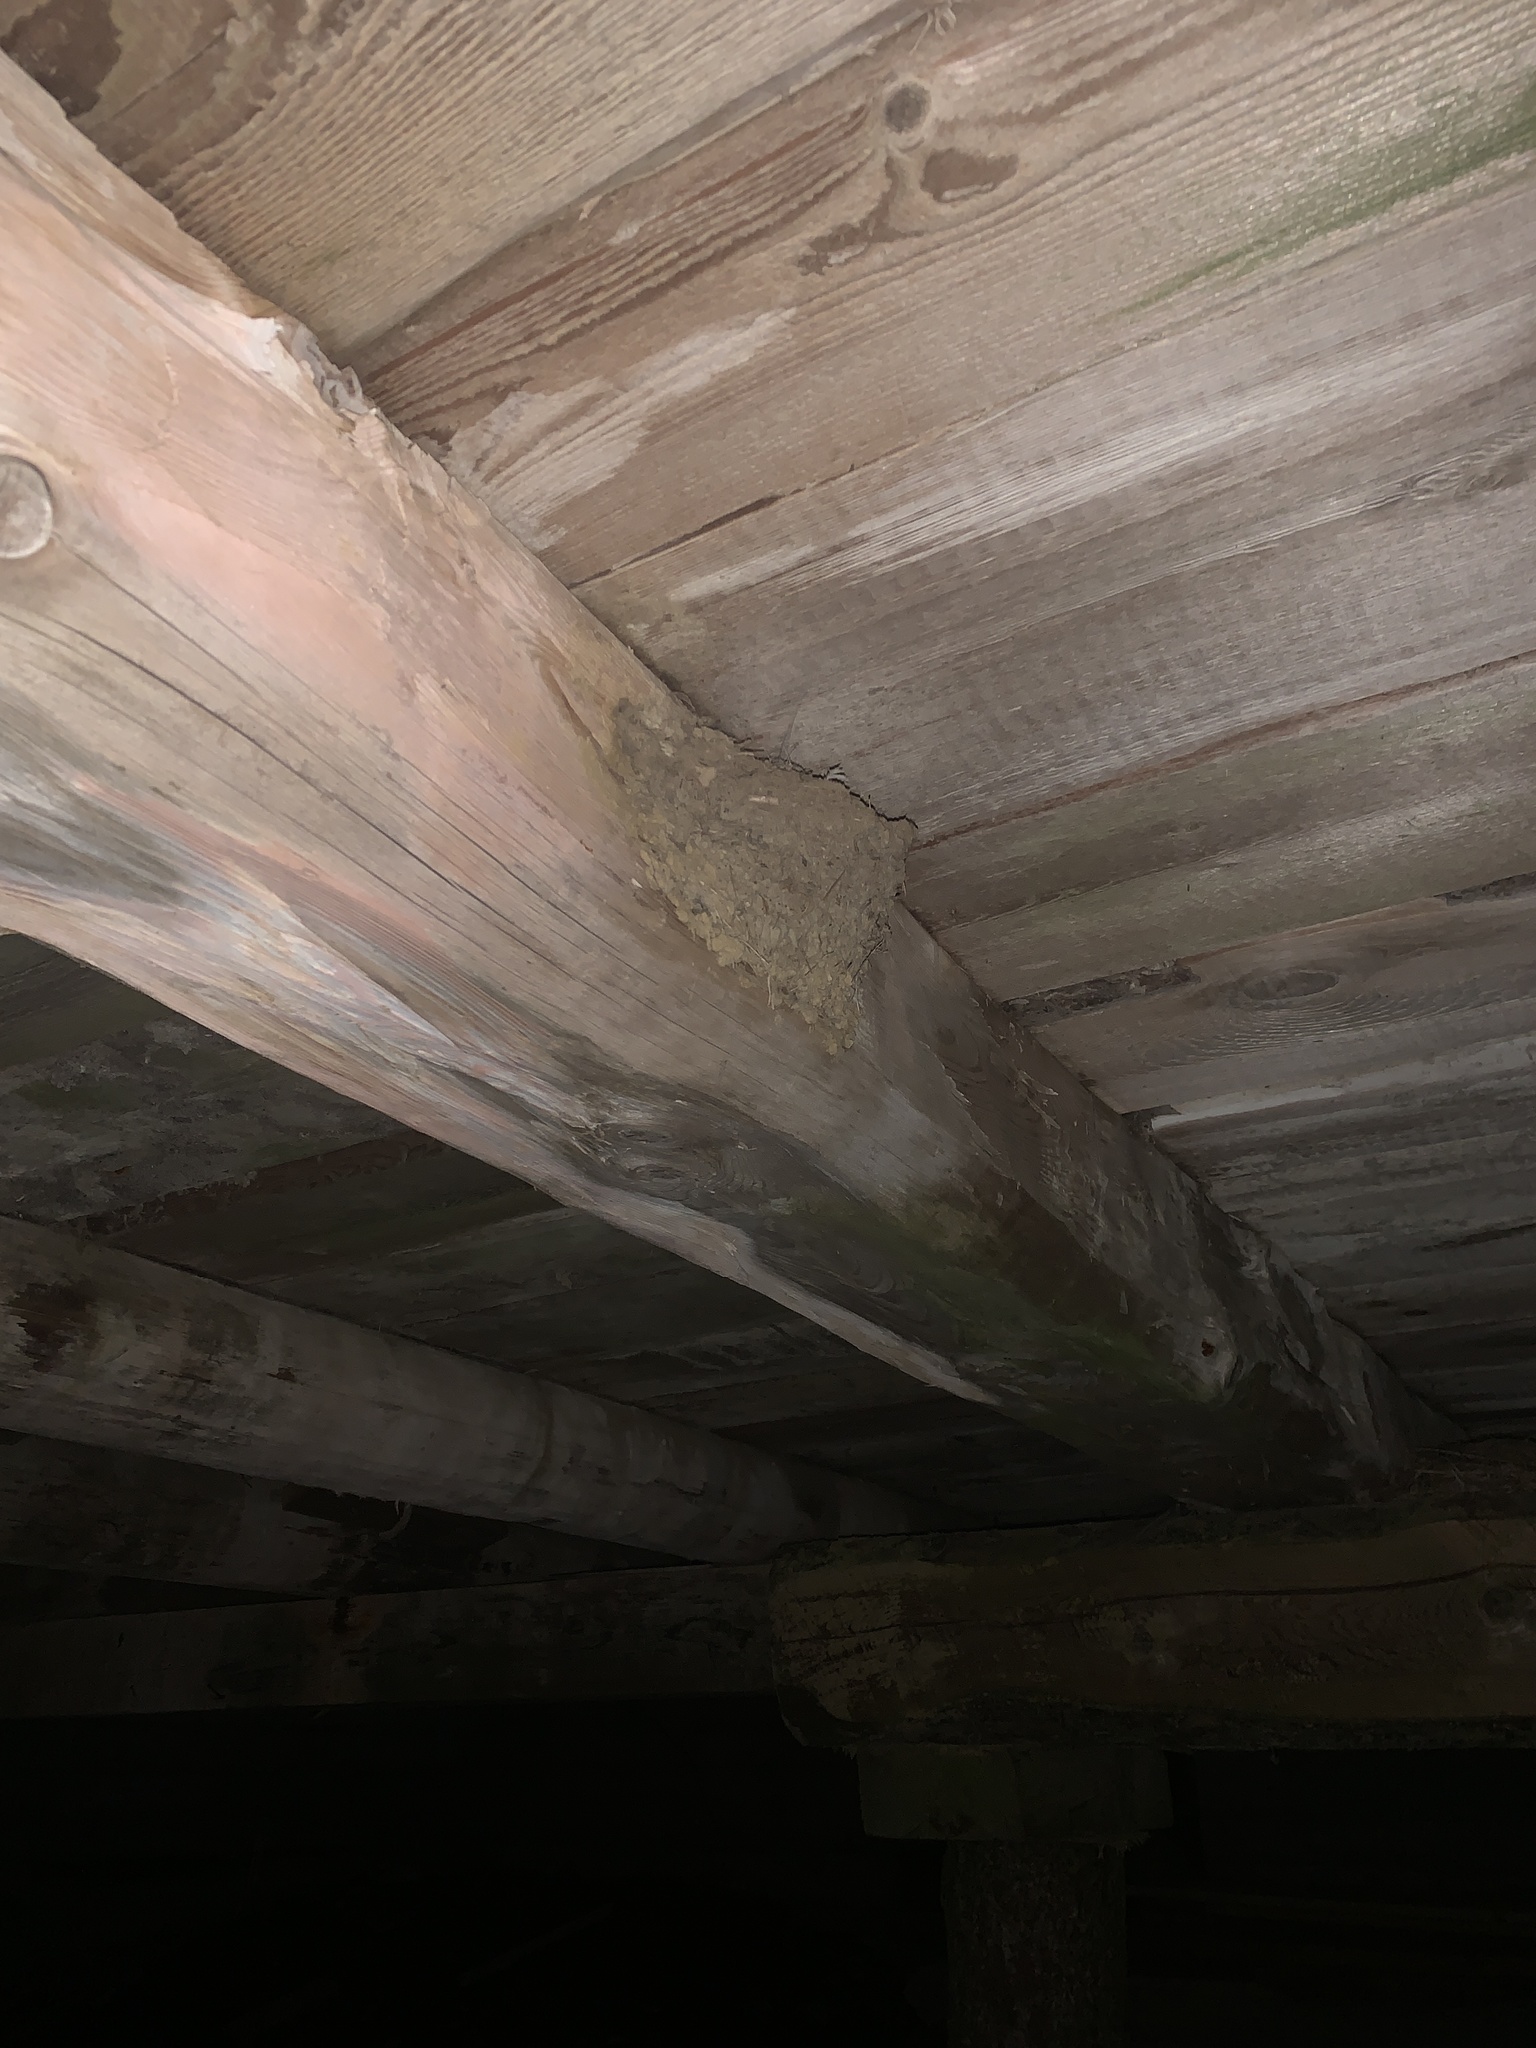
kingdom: Animalia
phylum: Chordata
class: Aves
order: Passeriformes
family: Hirundinidae
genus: Hirundo
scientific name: Hirundo rustica
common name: Barn swallow
